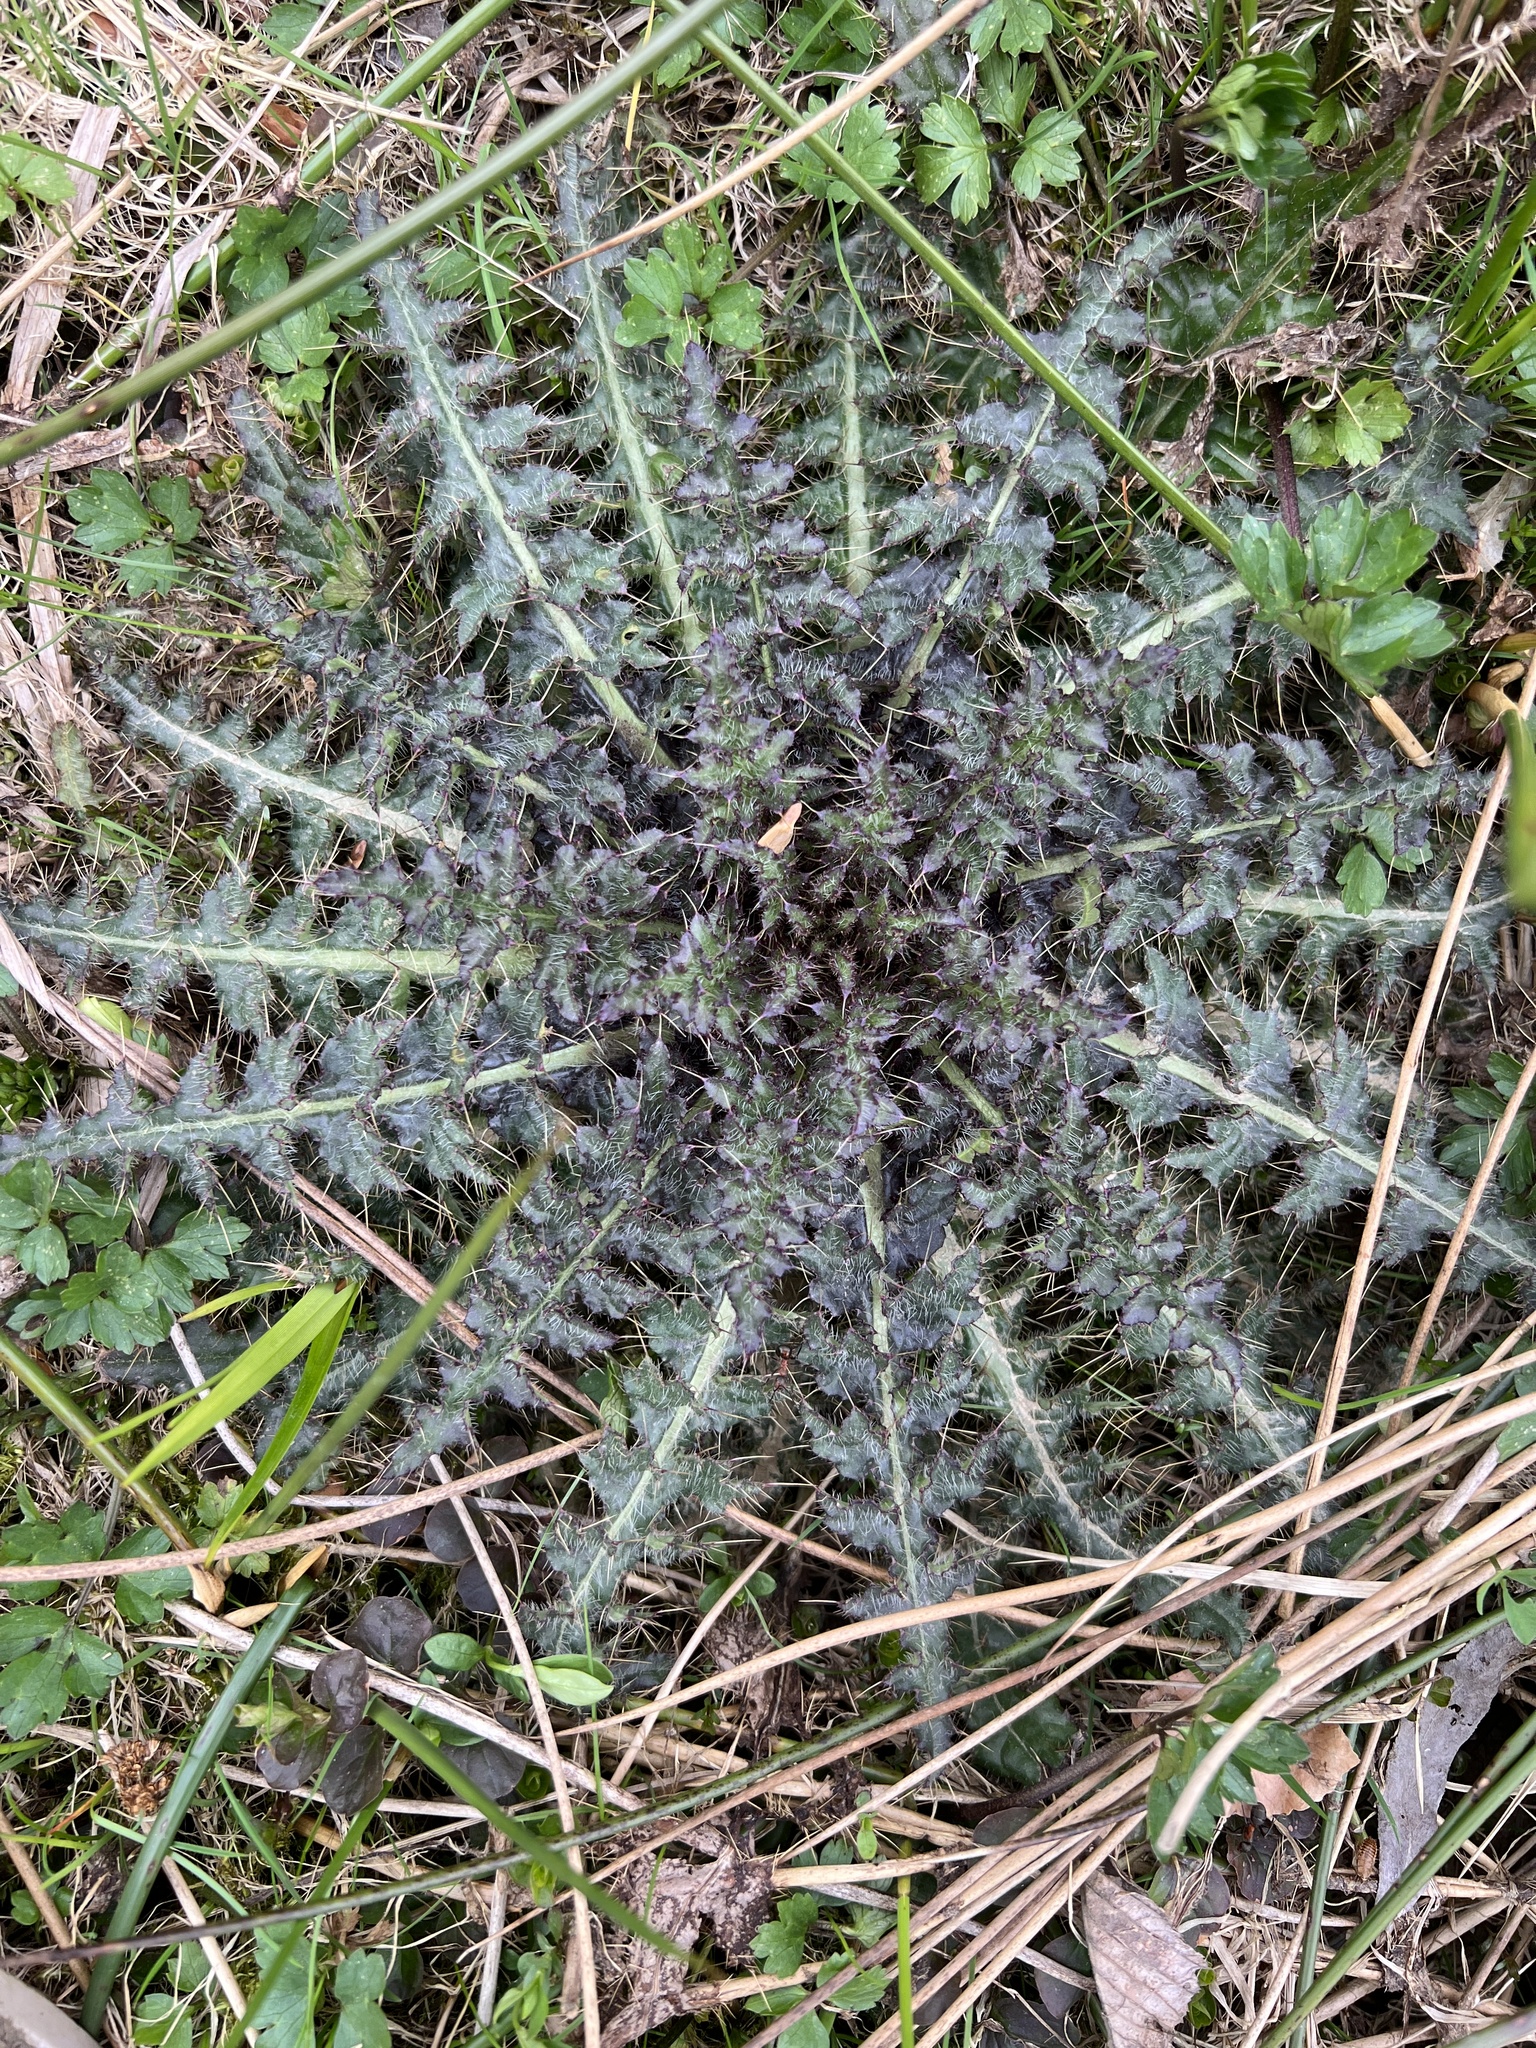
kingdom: Plantae
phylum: Tracheophyta
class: Magnoliopsida
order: Asterales
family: Asteraceae
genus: Cirsium
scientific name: Cirsium palustre
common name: Marsh thistle
